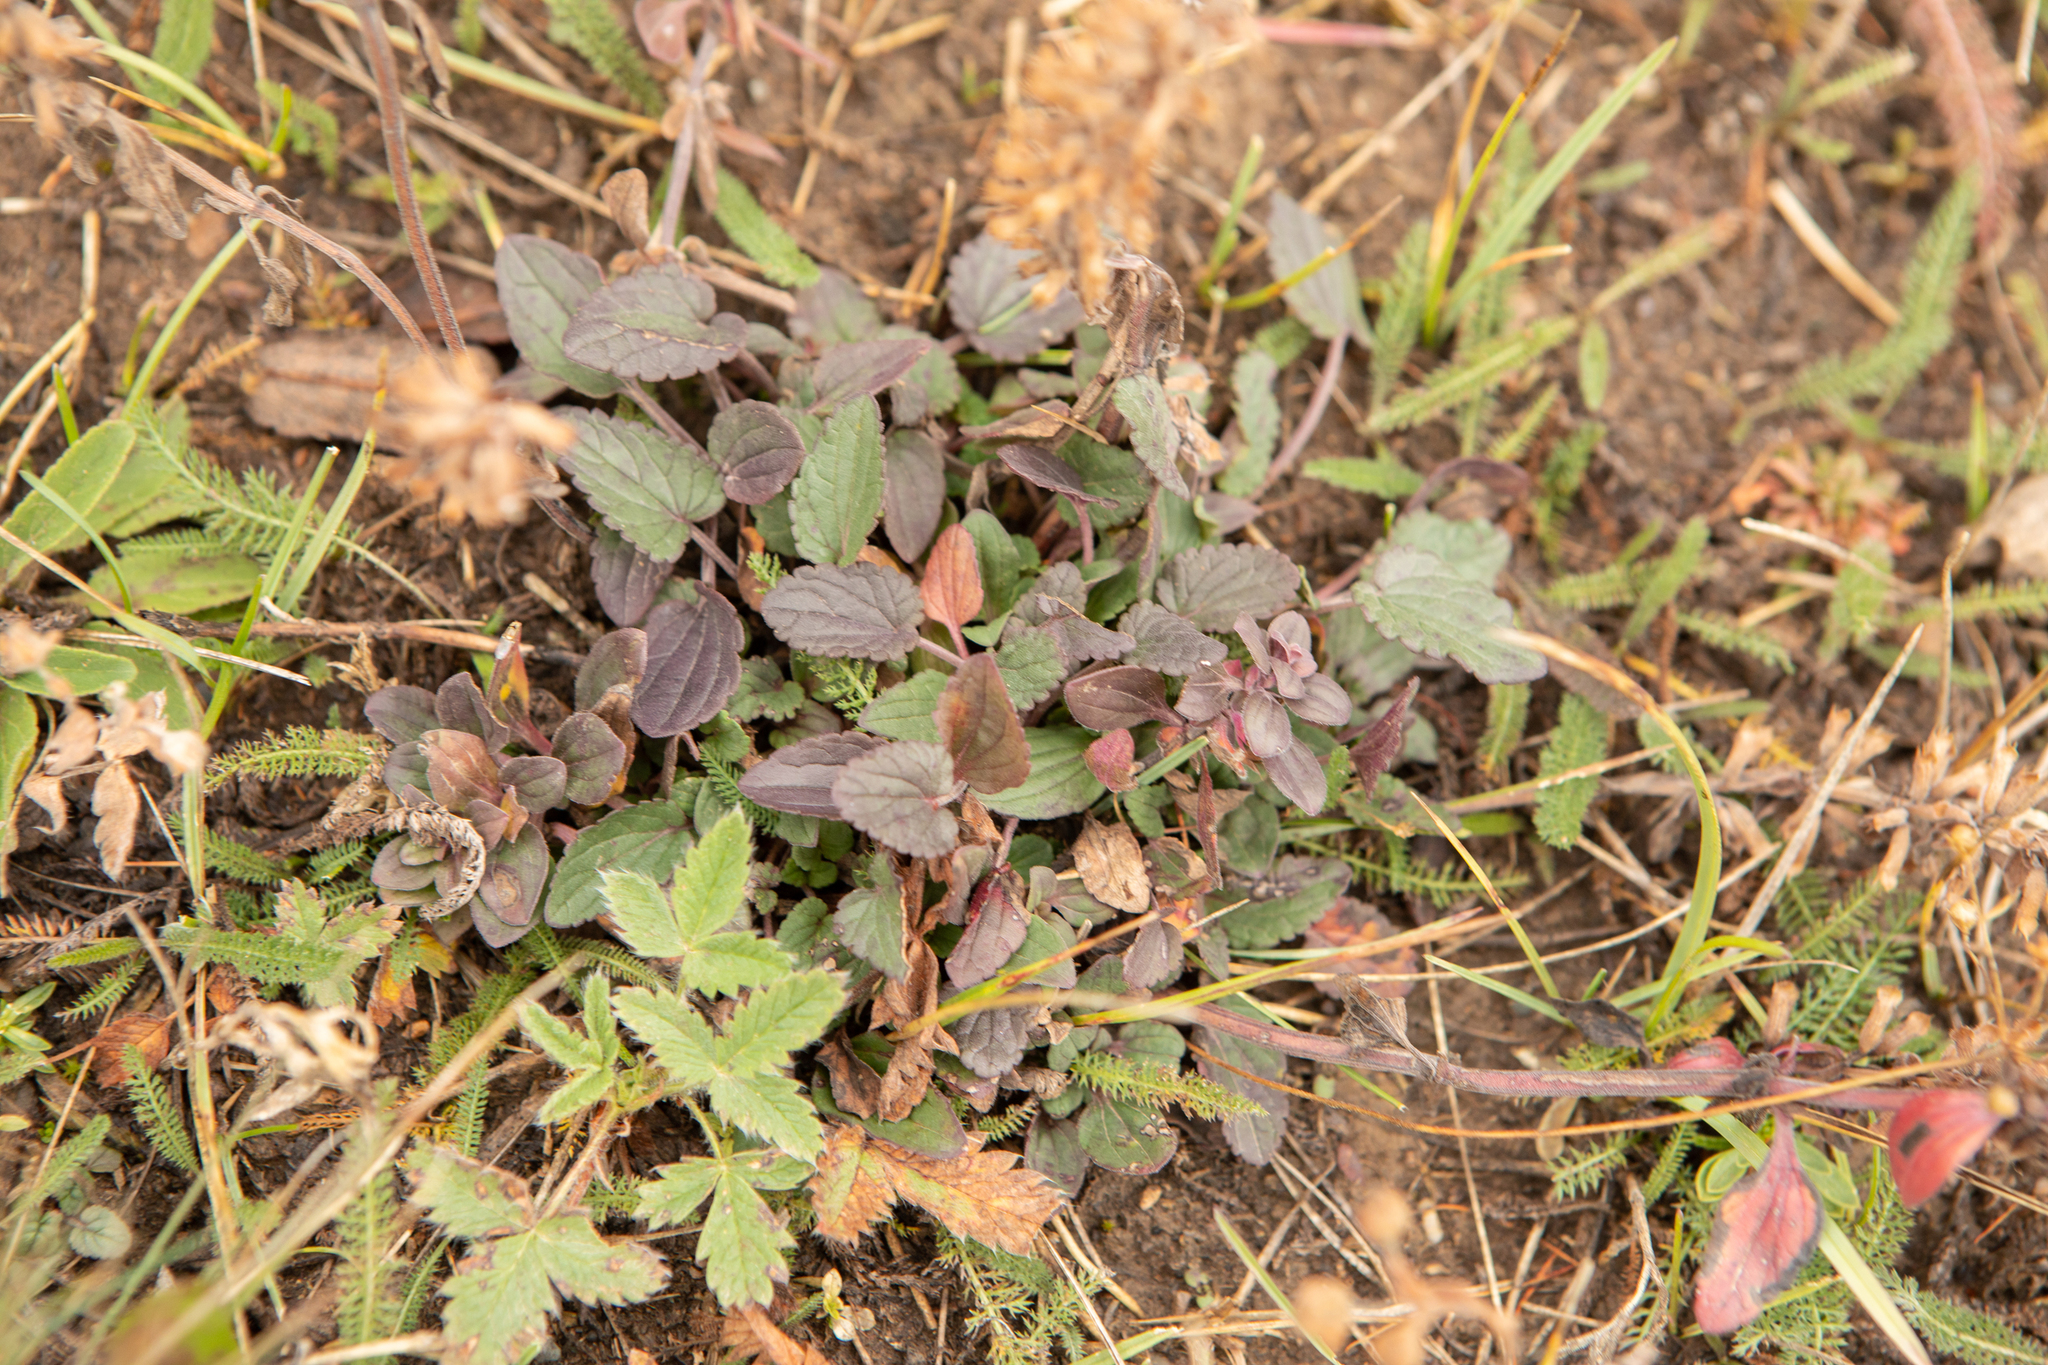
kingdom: Plantae
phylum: Tracheophyta
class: Magnoliopsida
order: Lamiales
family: Lamiaceae
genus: Dracocephalum
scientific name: Dracocephalum nutans
